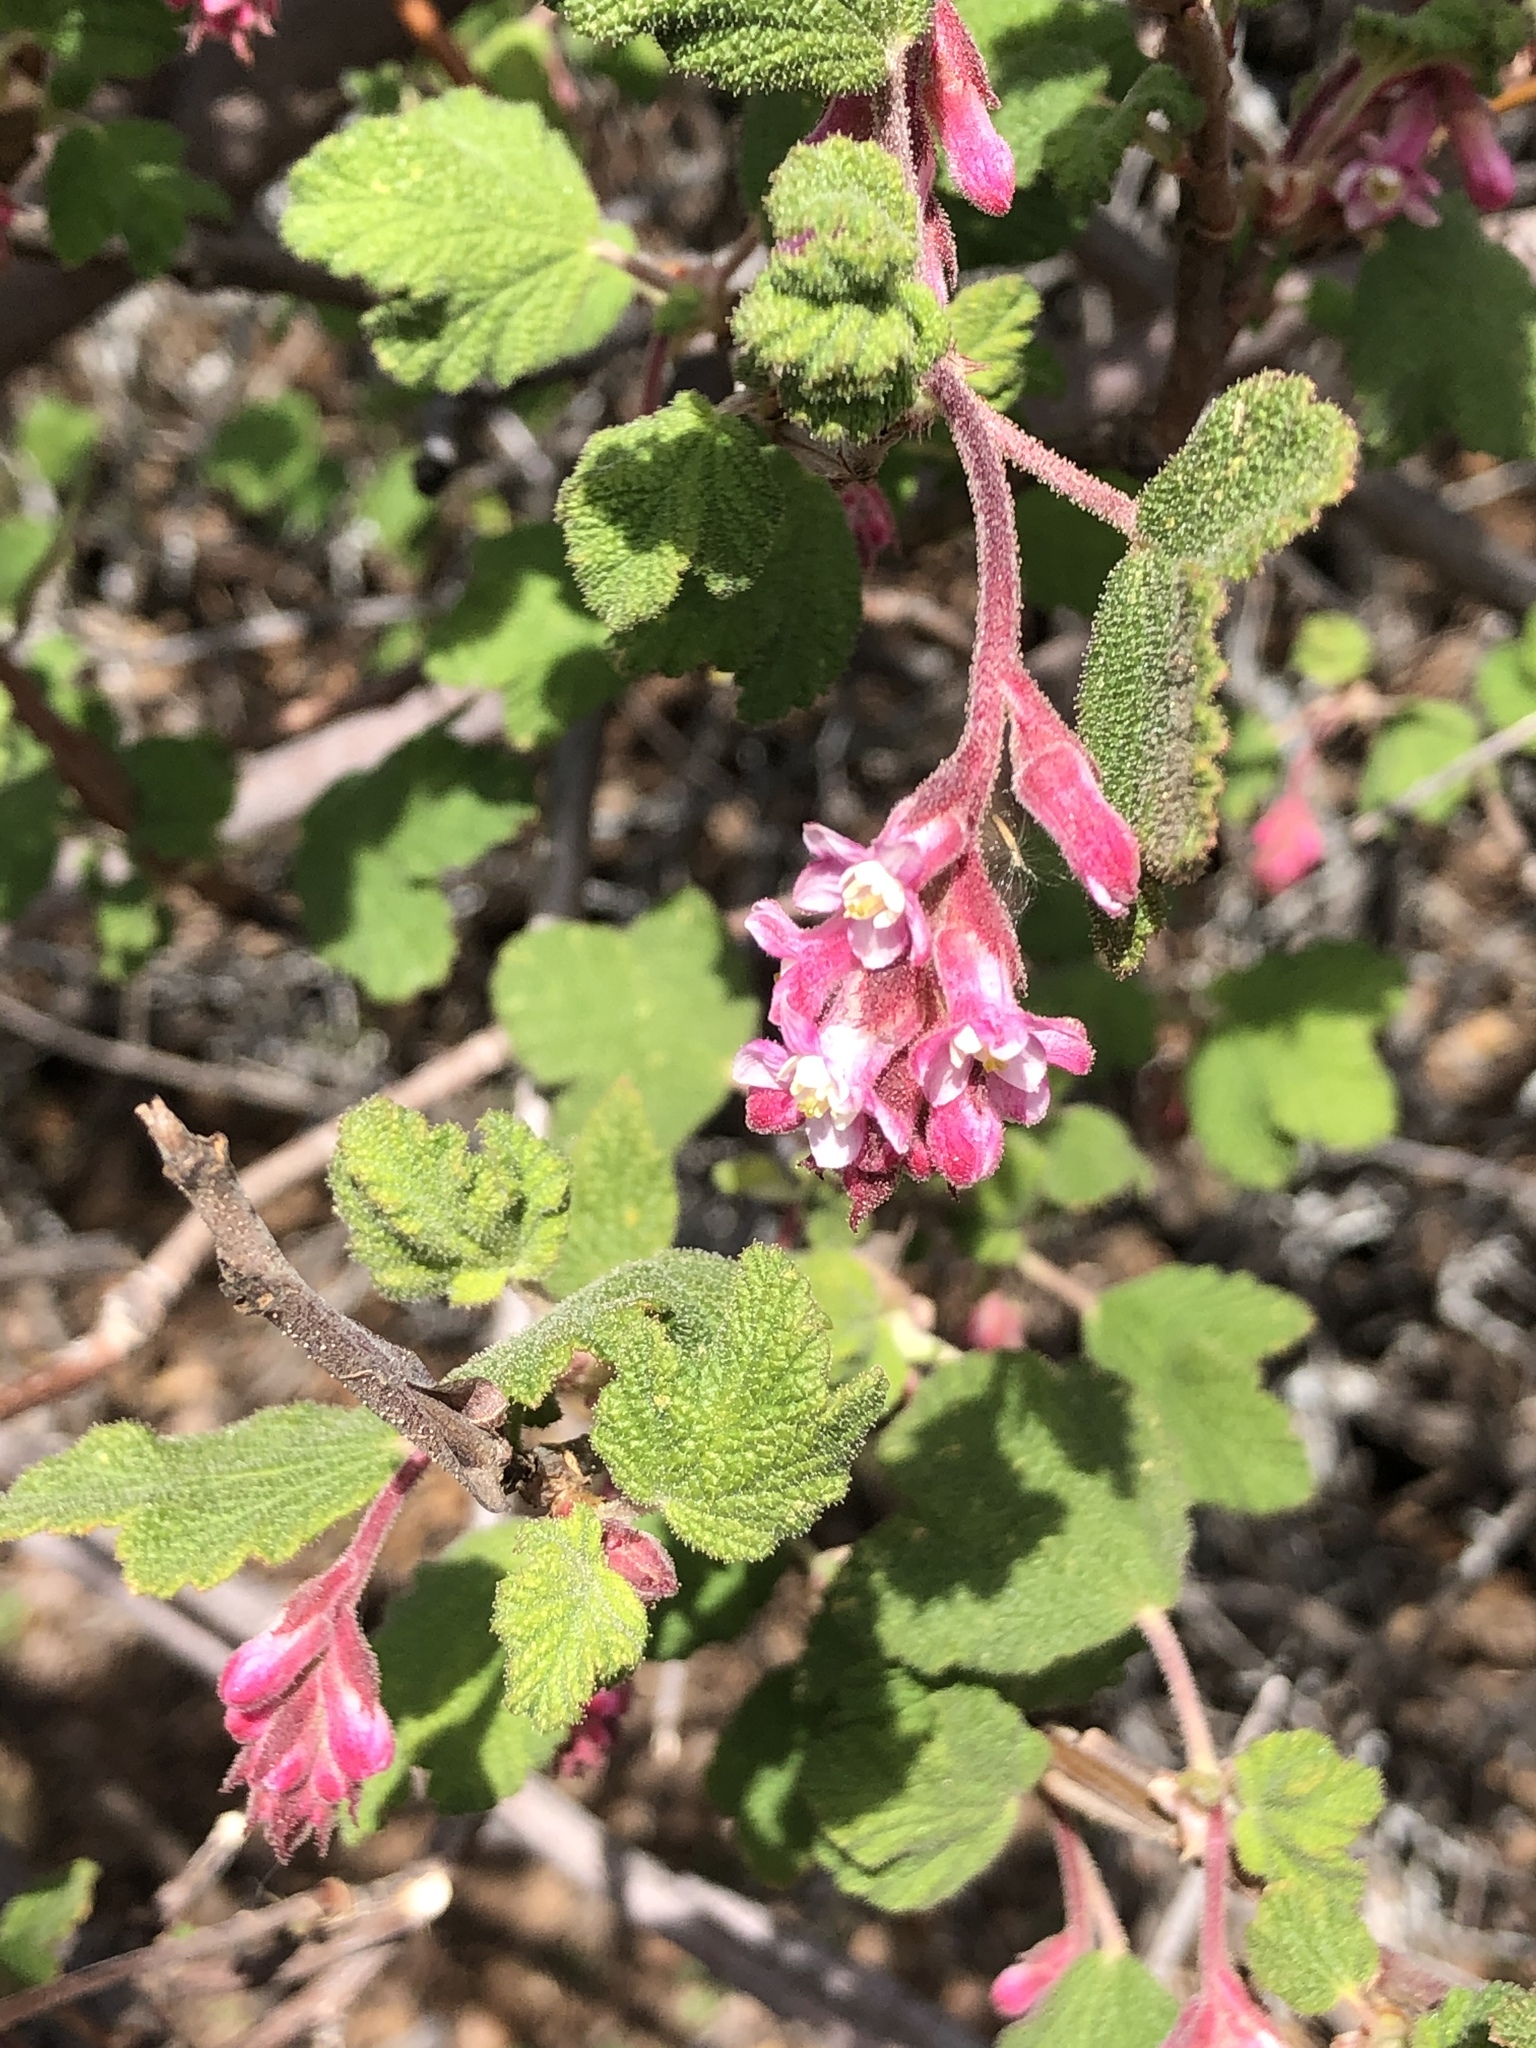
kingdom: Plantae
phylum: Tracheophyta
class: Magnoliopsida
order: Saxifragales
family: Grossulariaceae
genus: Ribes
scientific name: Ribes malvaceum
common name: Chaparral currant
